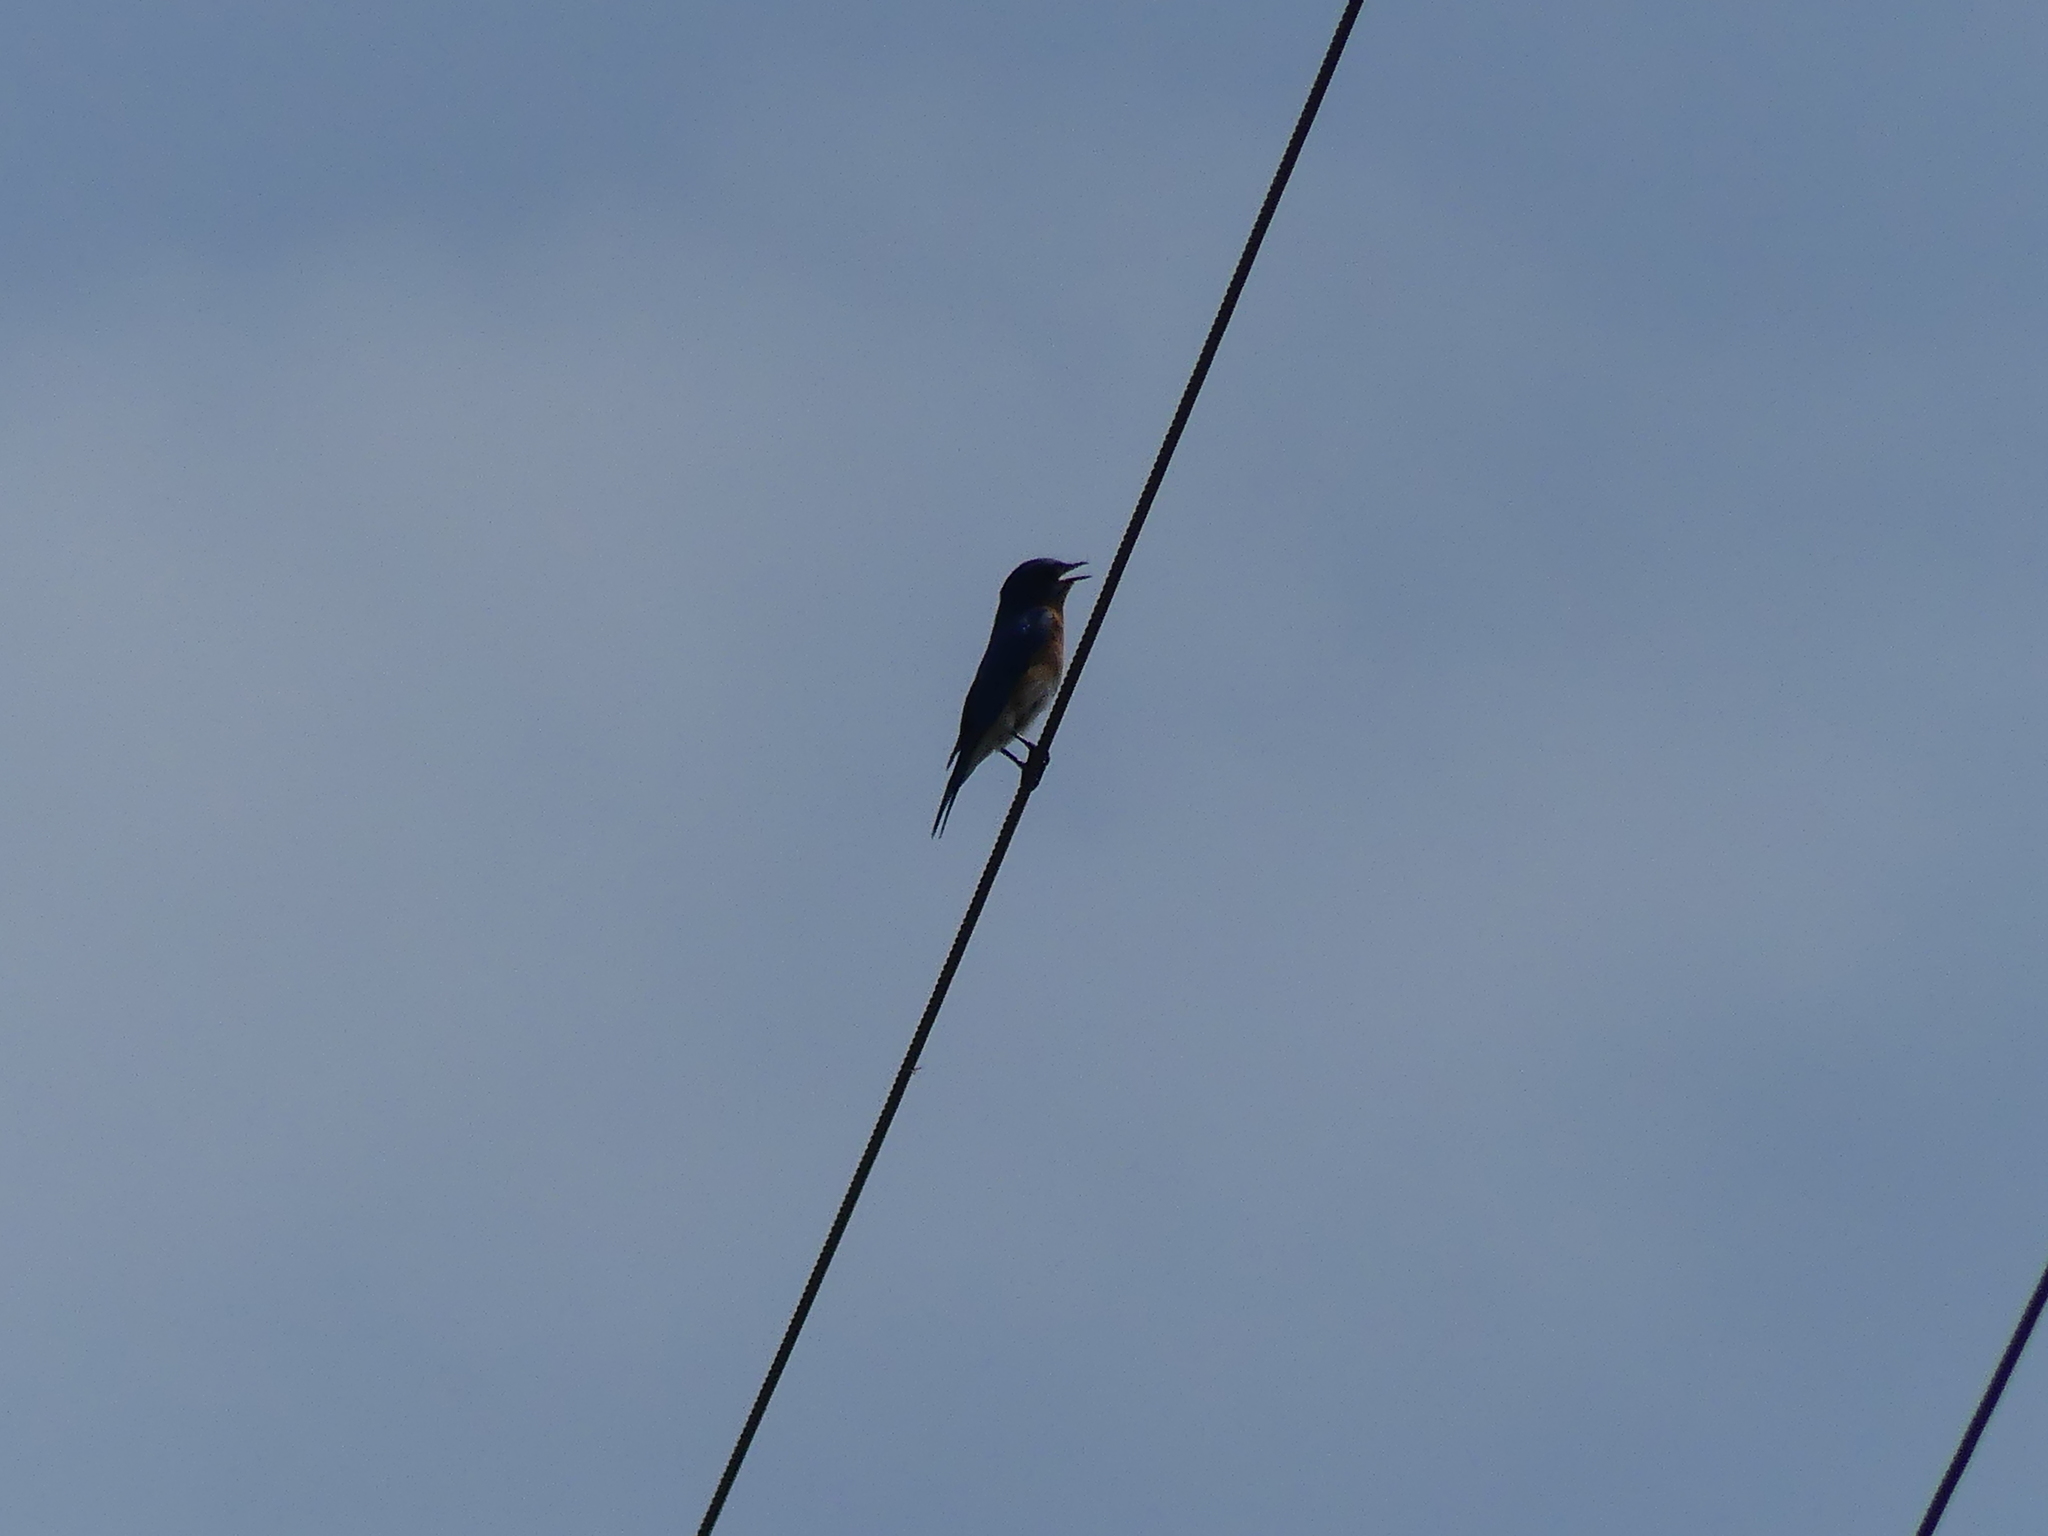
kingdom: Animalia
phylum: Chordata
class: Aves
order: Passeriformes
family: Turdidae
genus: Sialia
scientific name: Sialia sialis
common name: Eastern bluebird
